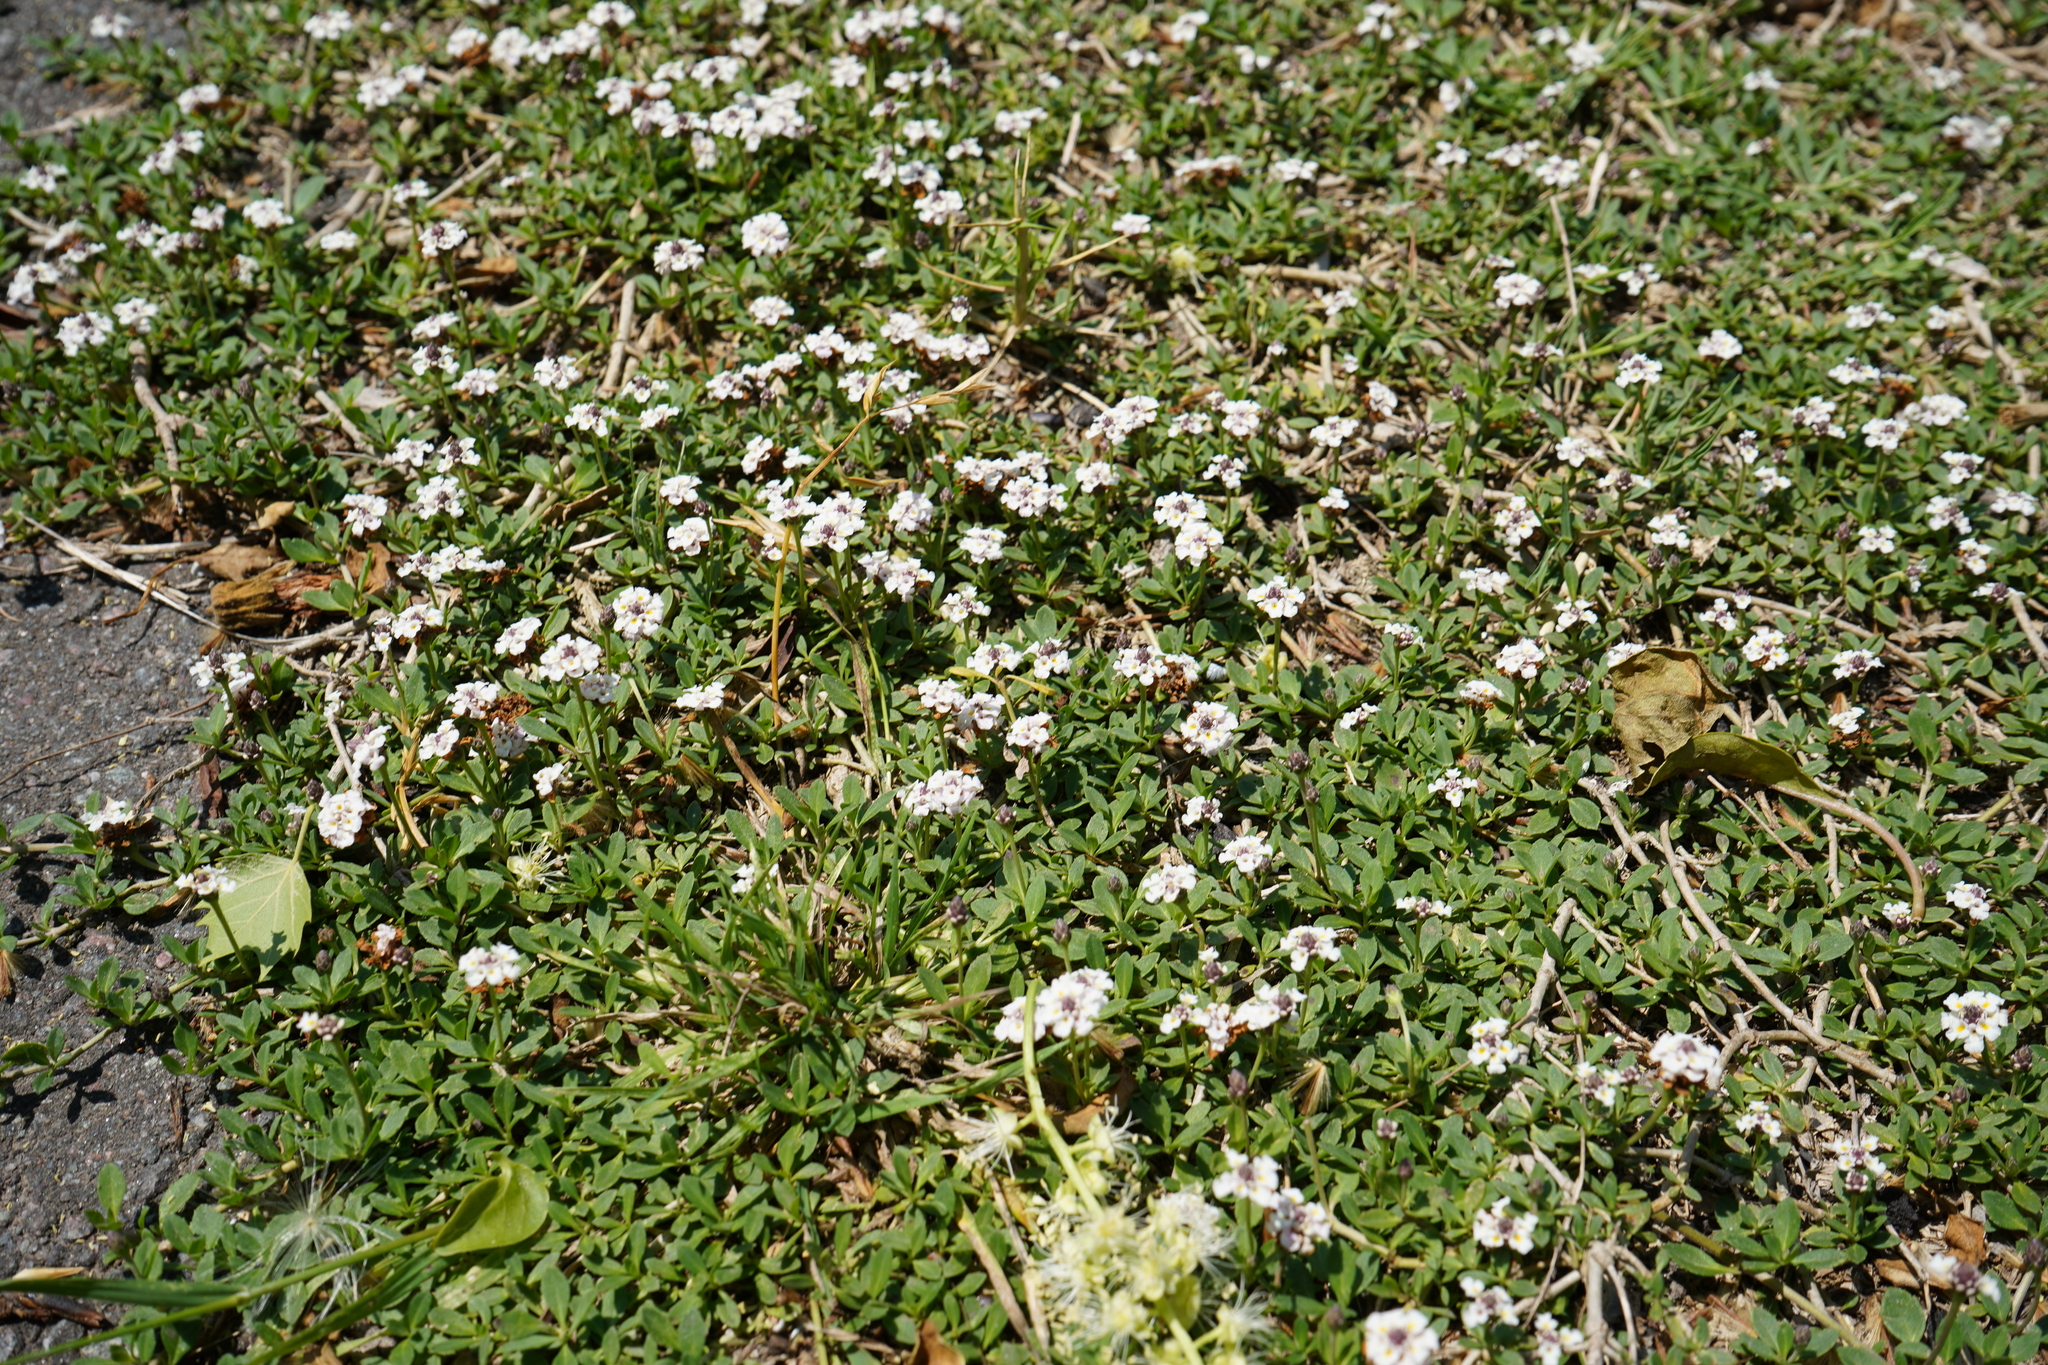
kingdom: Plantae
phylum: Tracheophyta
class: Magnoliopsida
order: Lamiales
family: Verbenaceae
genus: Phyla
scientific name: Phyla nodiflora
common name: Frogfruit
